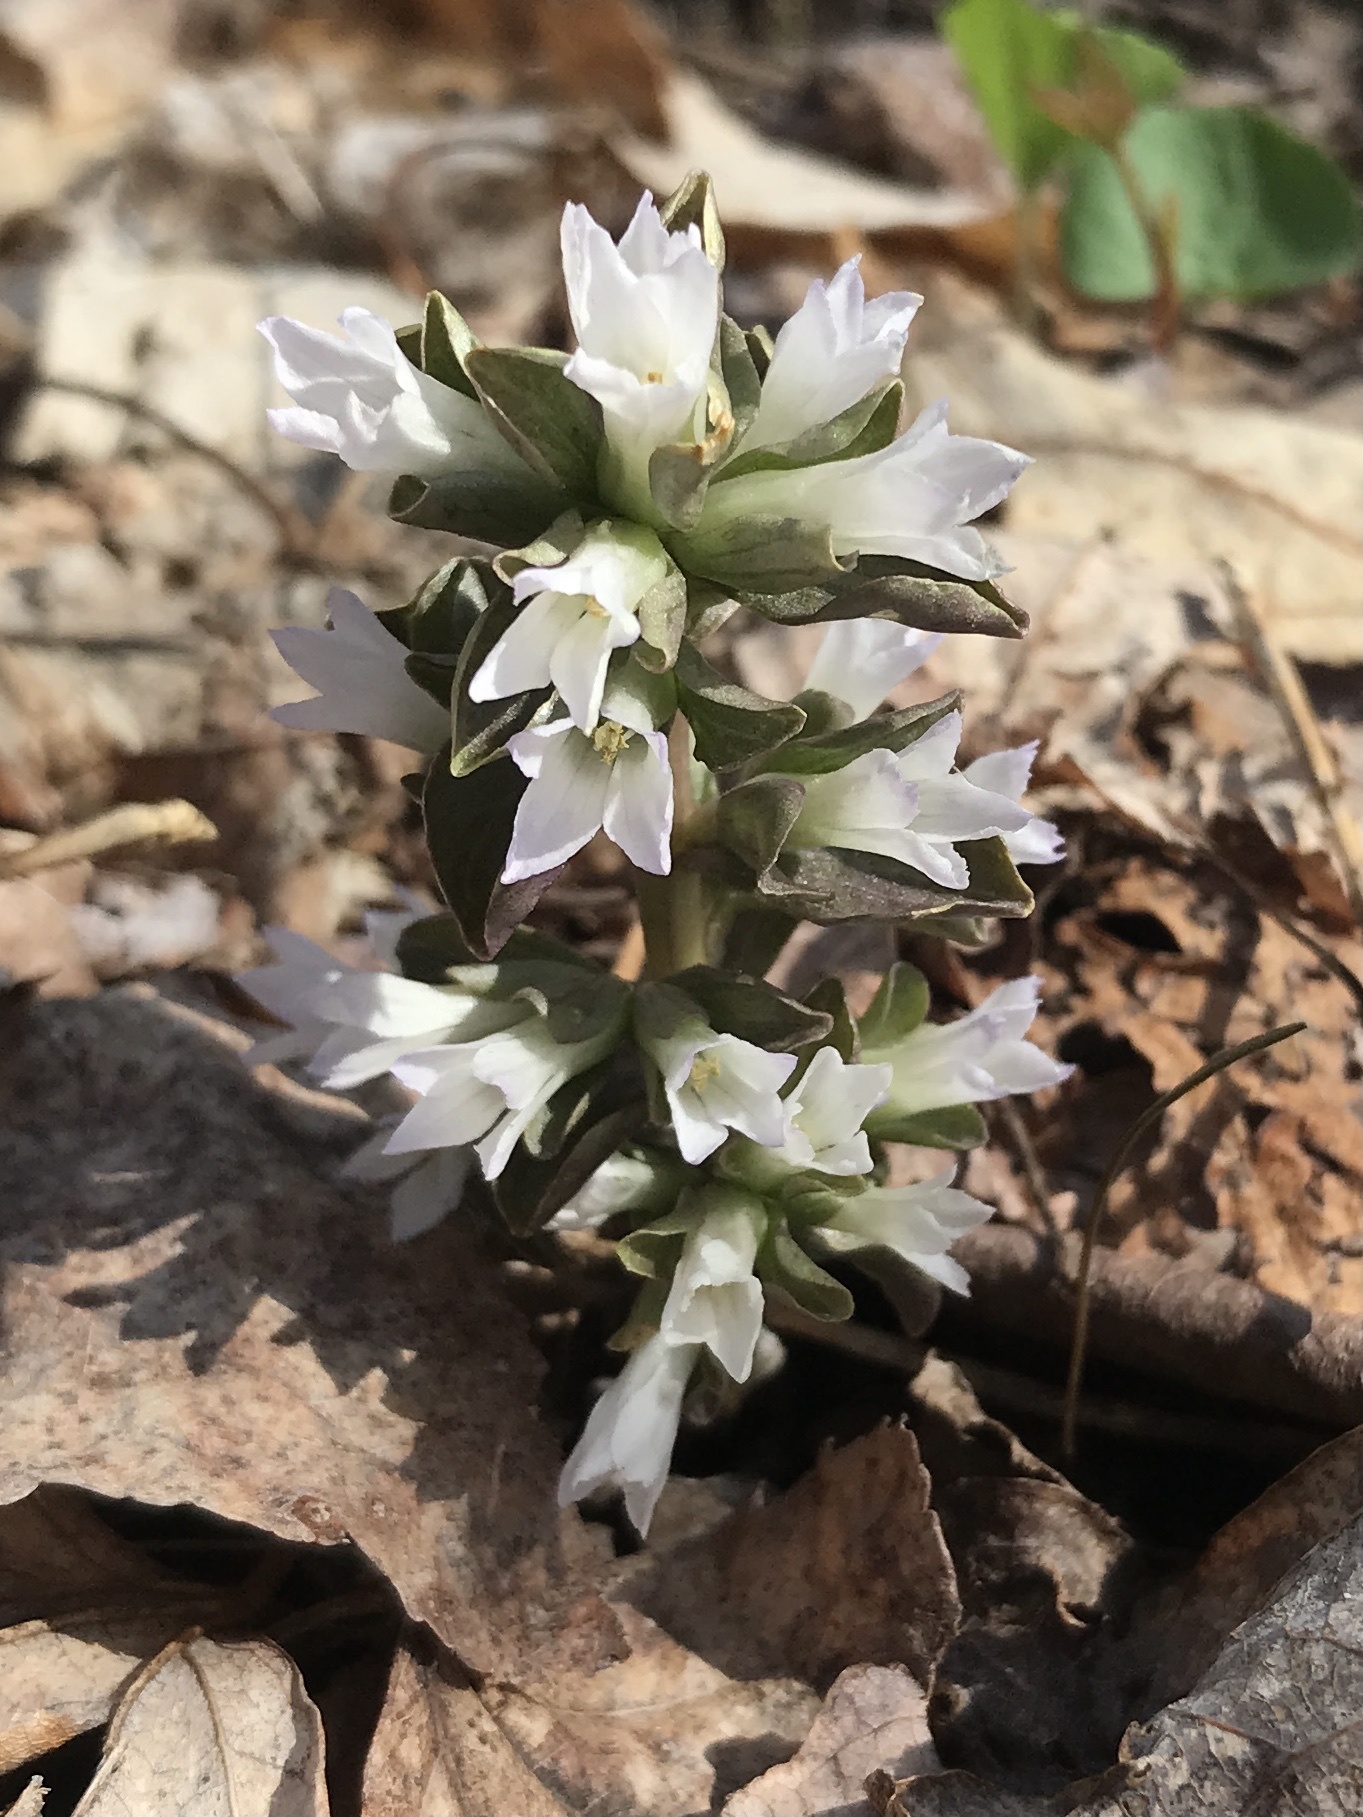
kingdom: Plantae
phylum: Tracheophyta
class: Magnoliopsida
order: Gentianales
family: Gentianaceae
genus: Obolaria
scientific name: Obolaria virginica
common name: Pennywort
